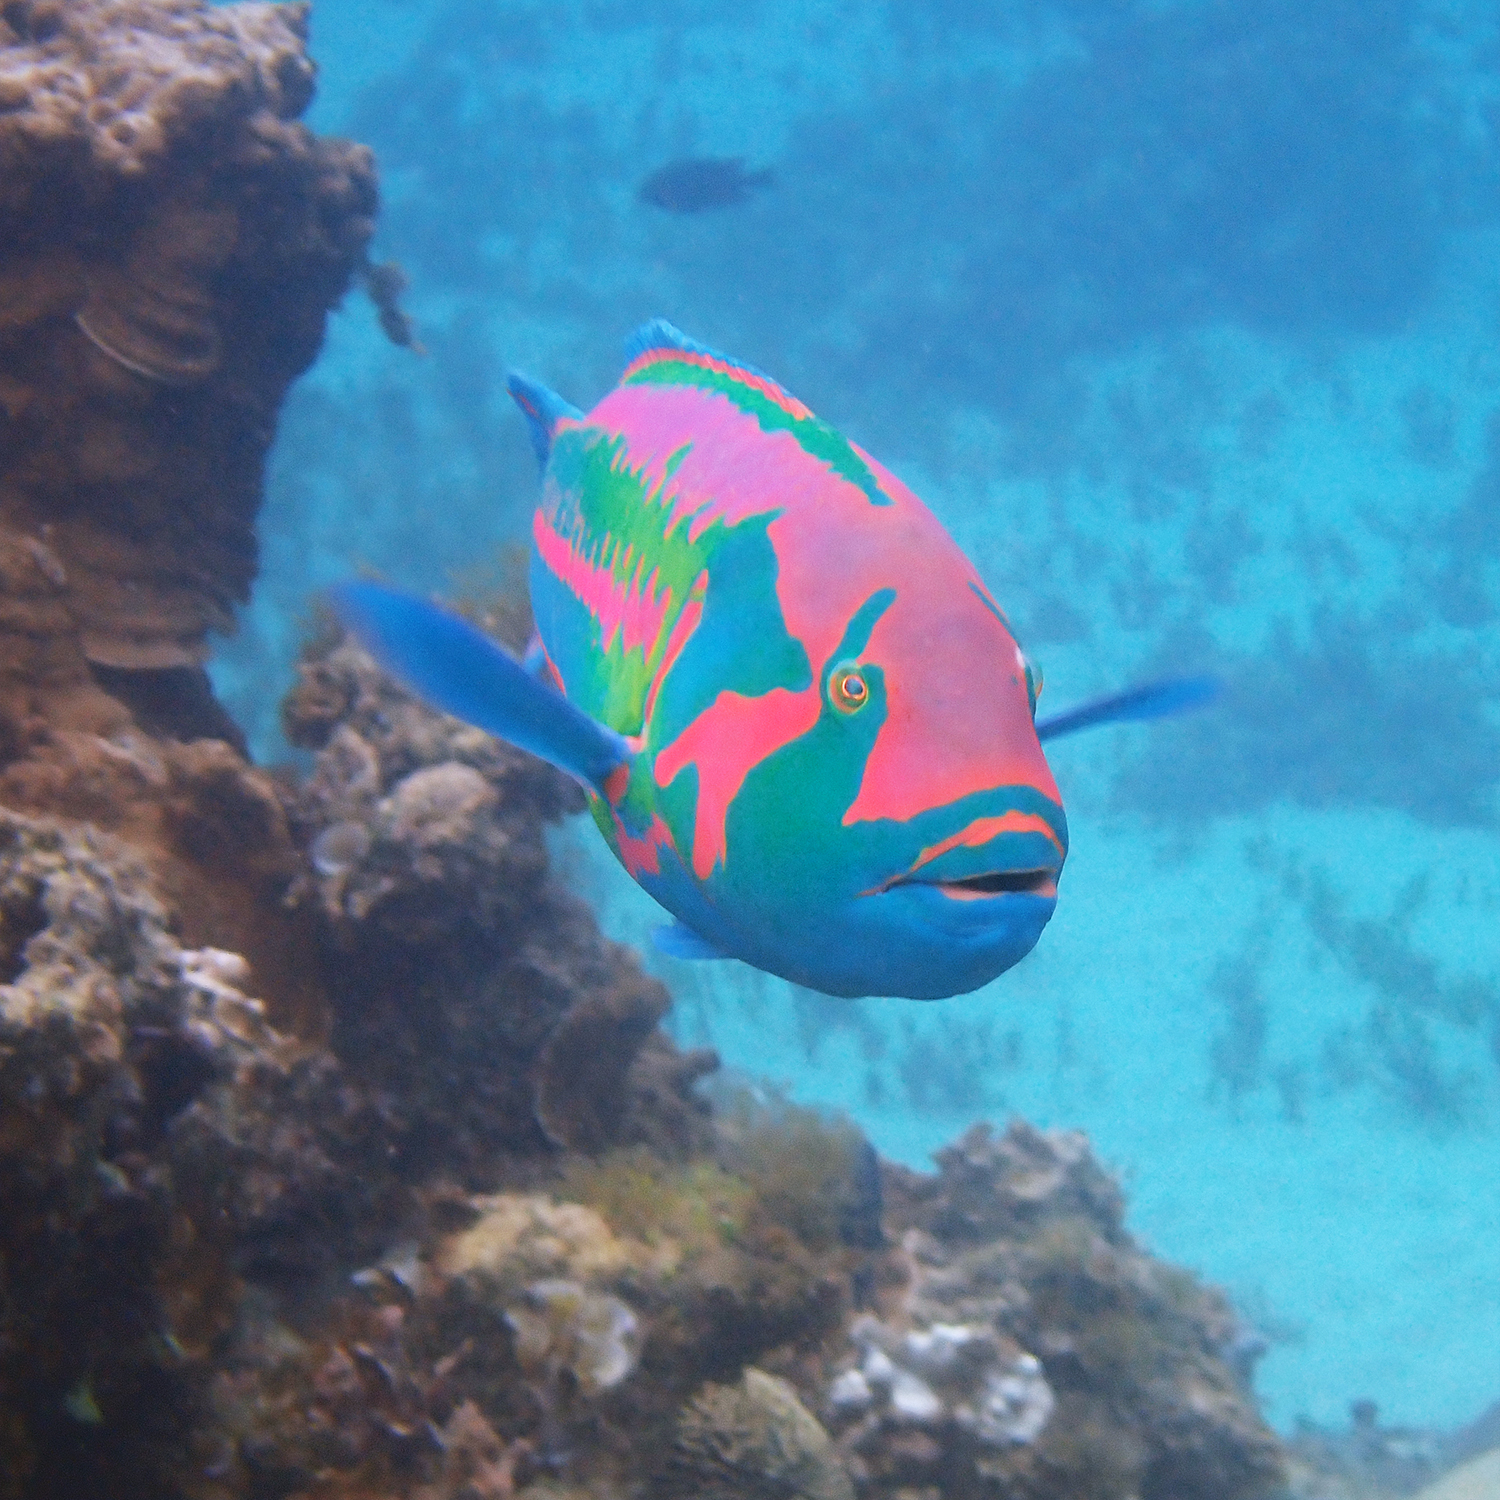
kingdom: Animalia
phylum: Chordata
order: Perciformes
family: Labridae
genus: Thalassoma
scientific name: Thalassoma purpureum
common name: Parrotfish
